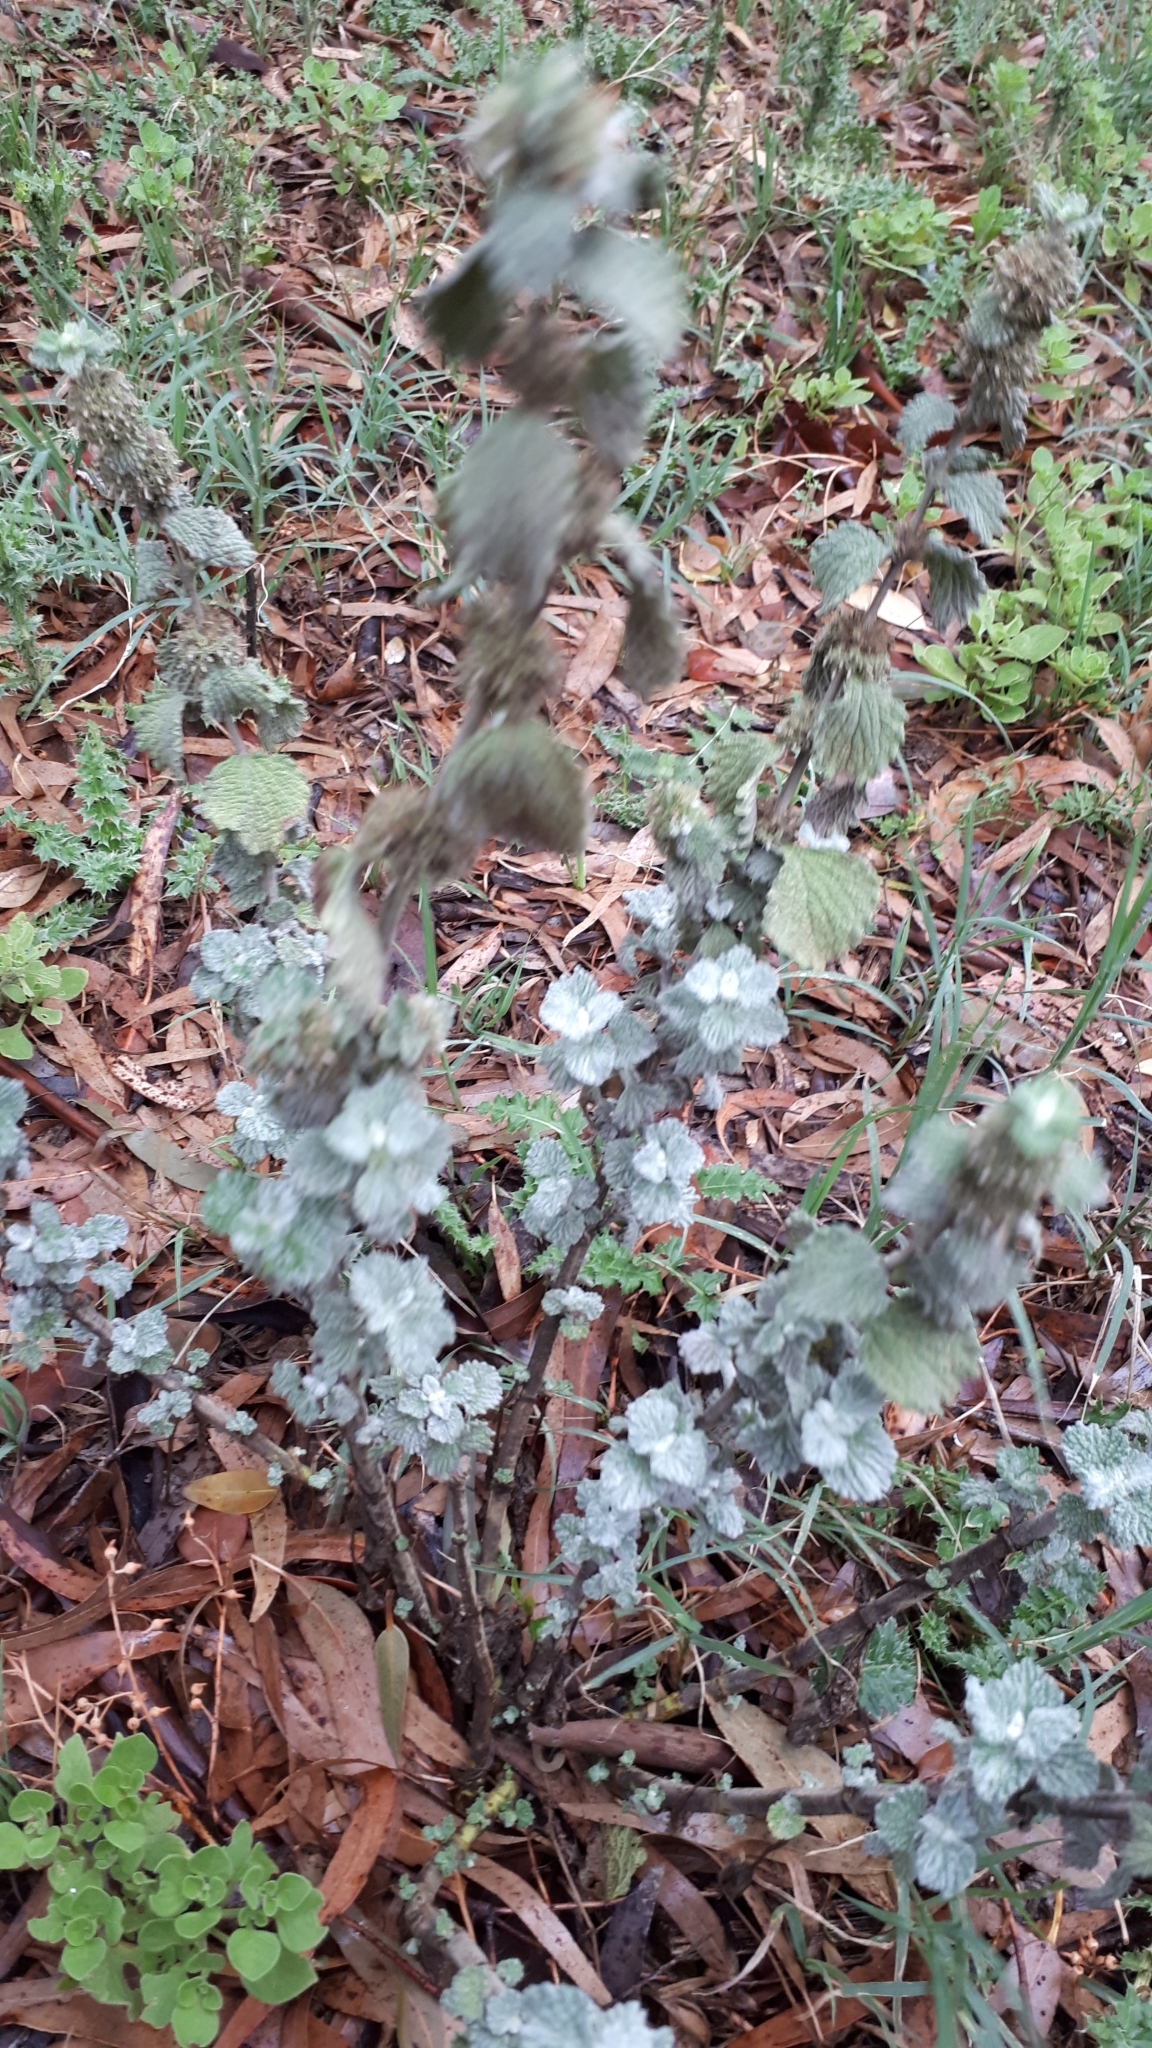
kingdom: Plantae
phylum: Tracheophyta
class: Magnoliopsida
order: Lamiales
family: Lamiaceae
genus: Marrubium
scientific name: Marrubium vulgare
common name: Horehound
